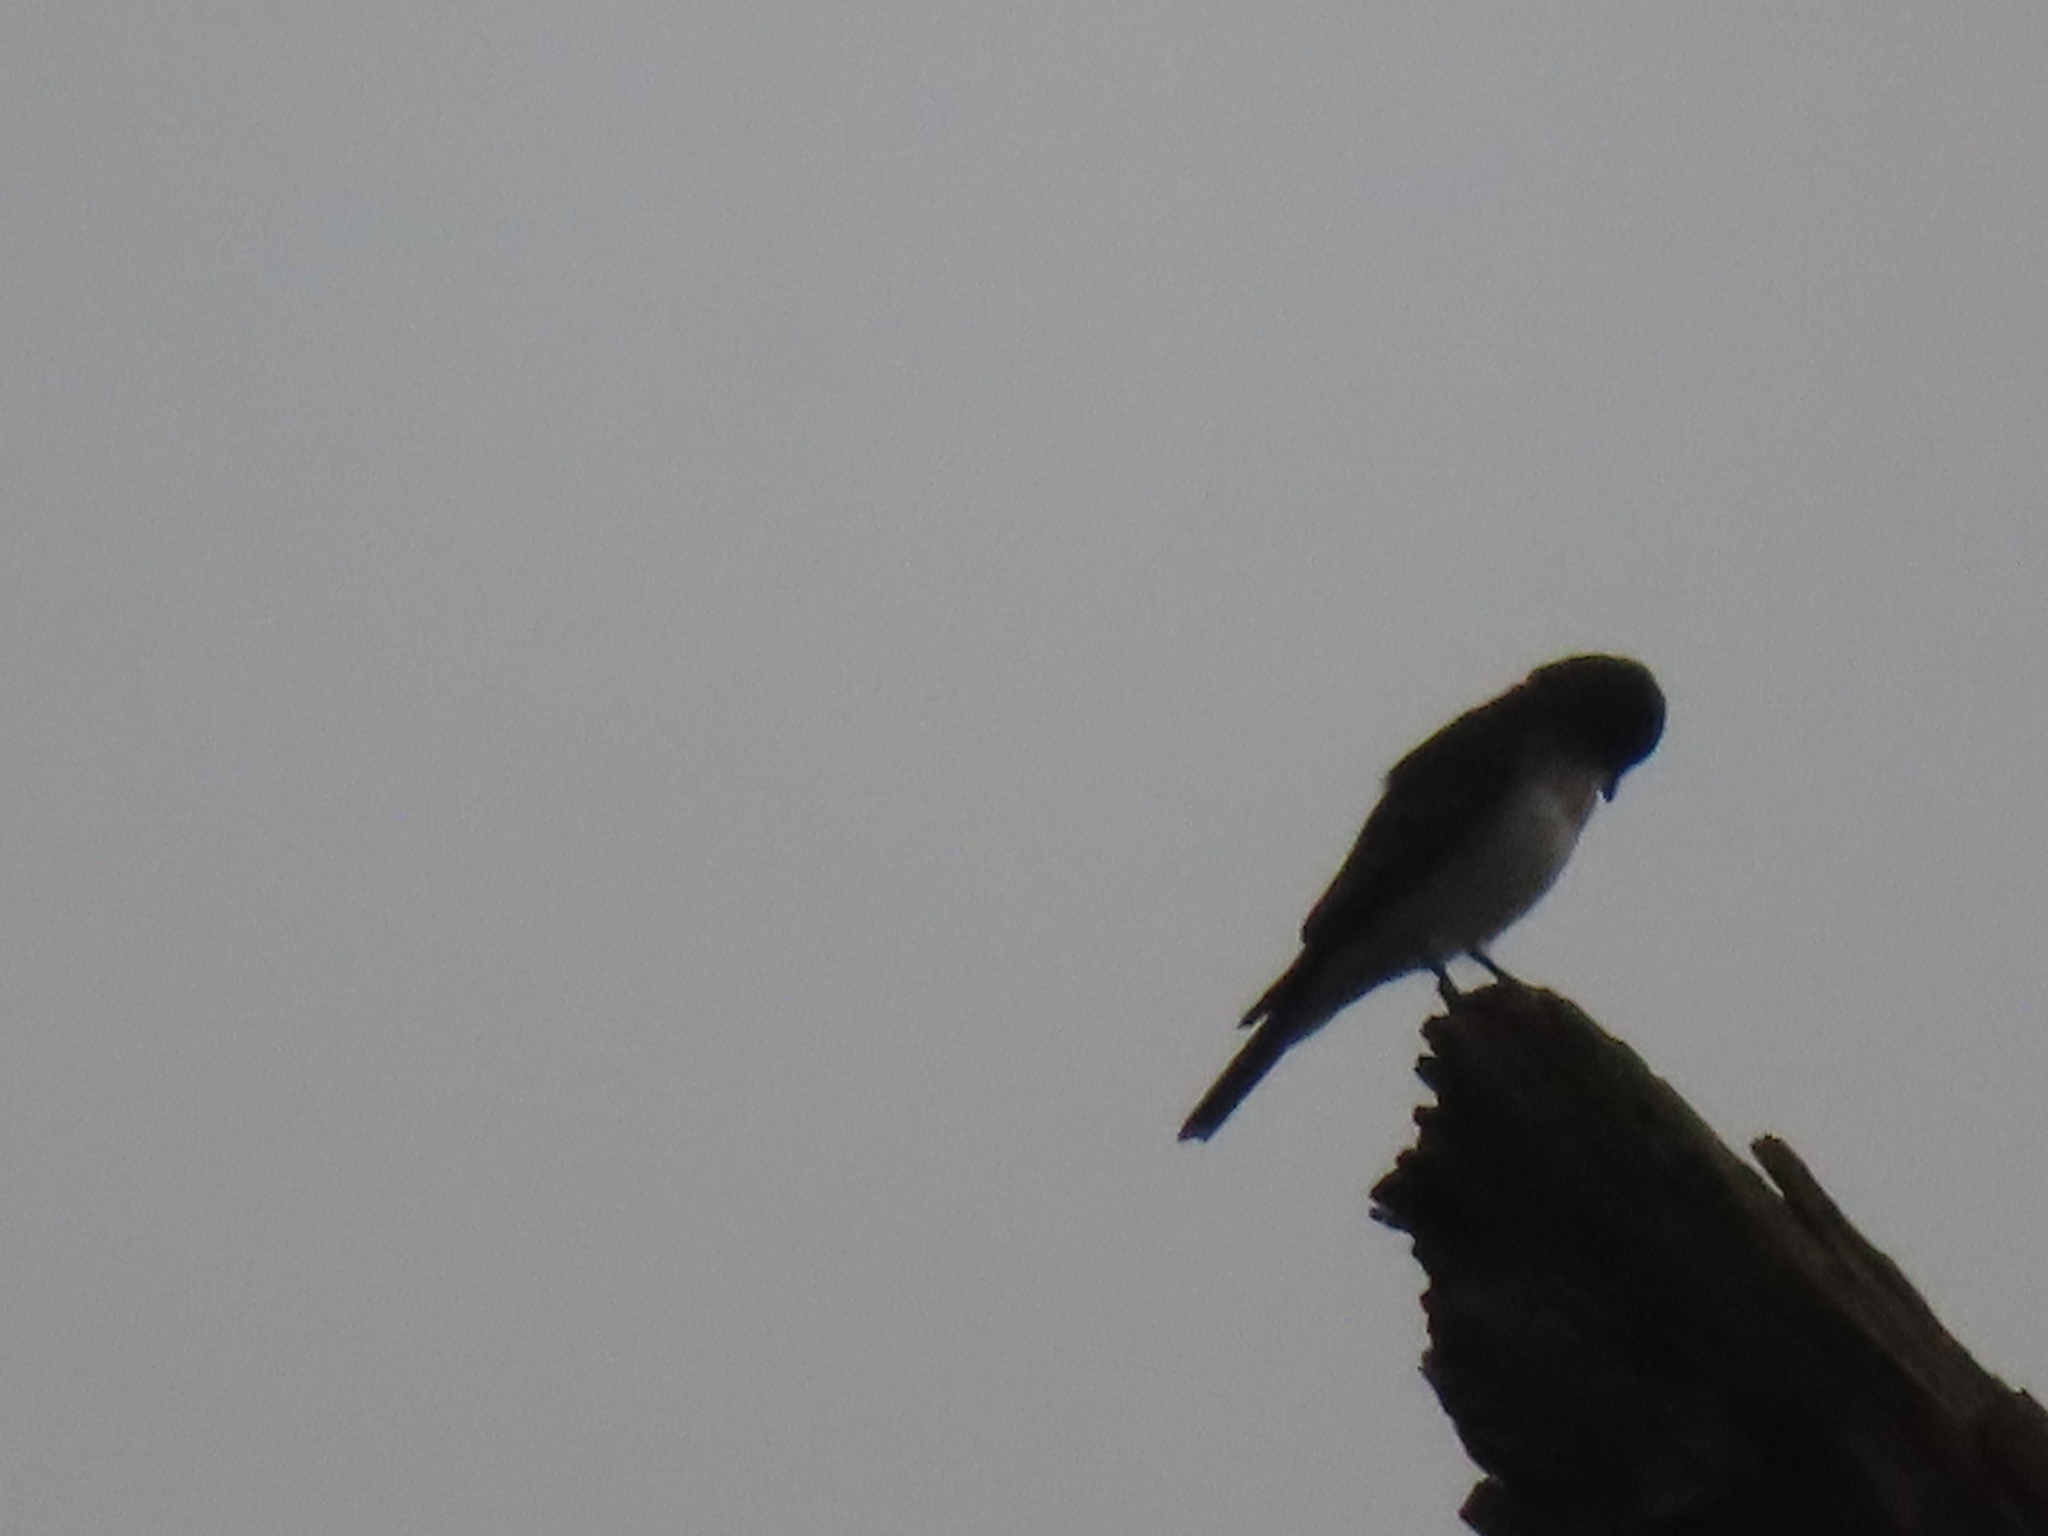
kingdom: Animalia
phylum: Chordata
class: Aves
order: Passeriformes
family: Tyrannidae
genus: Tyrannus
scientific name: Tyrannus tyrannus
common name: Eastern kingbird
